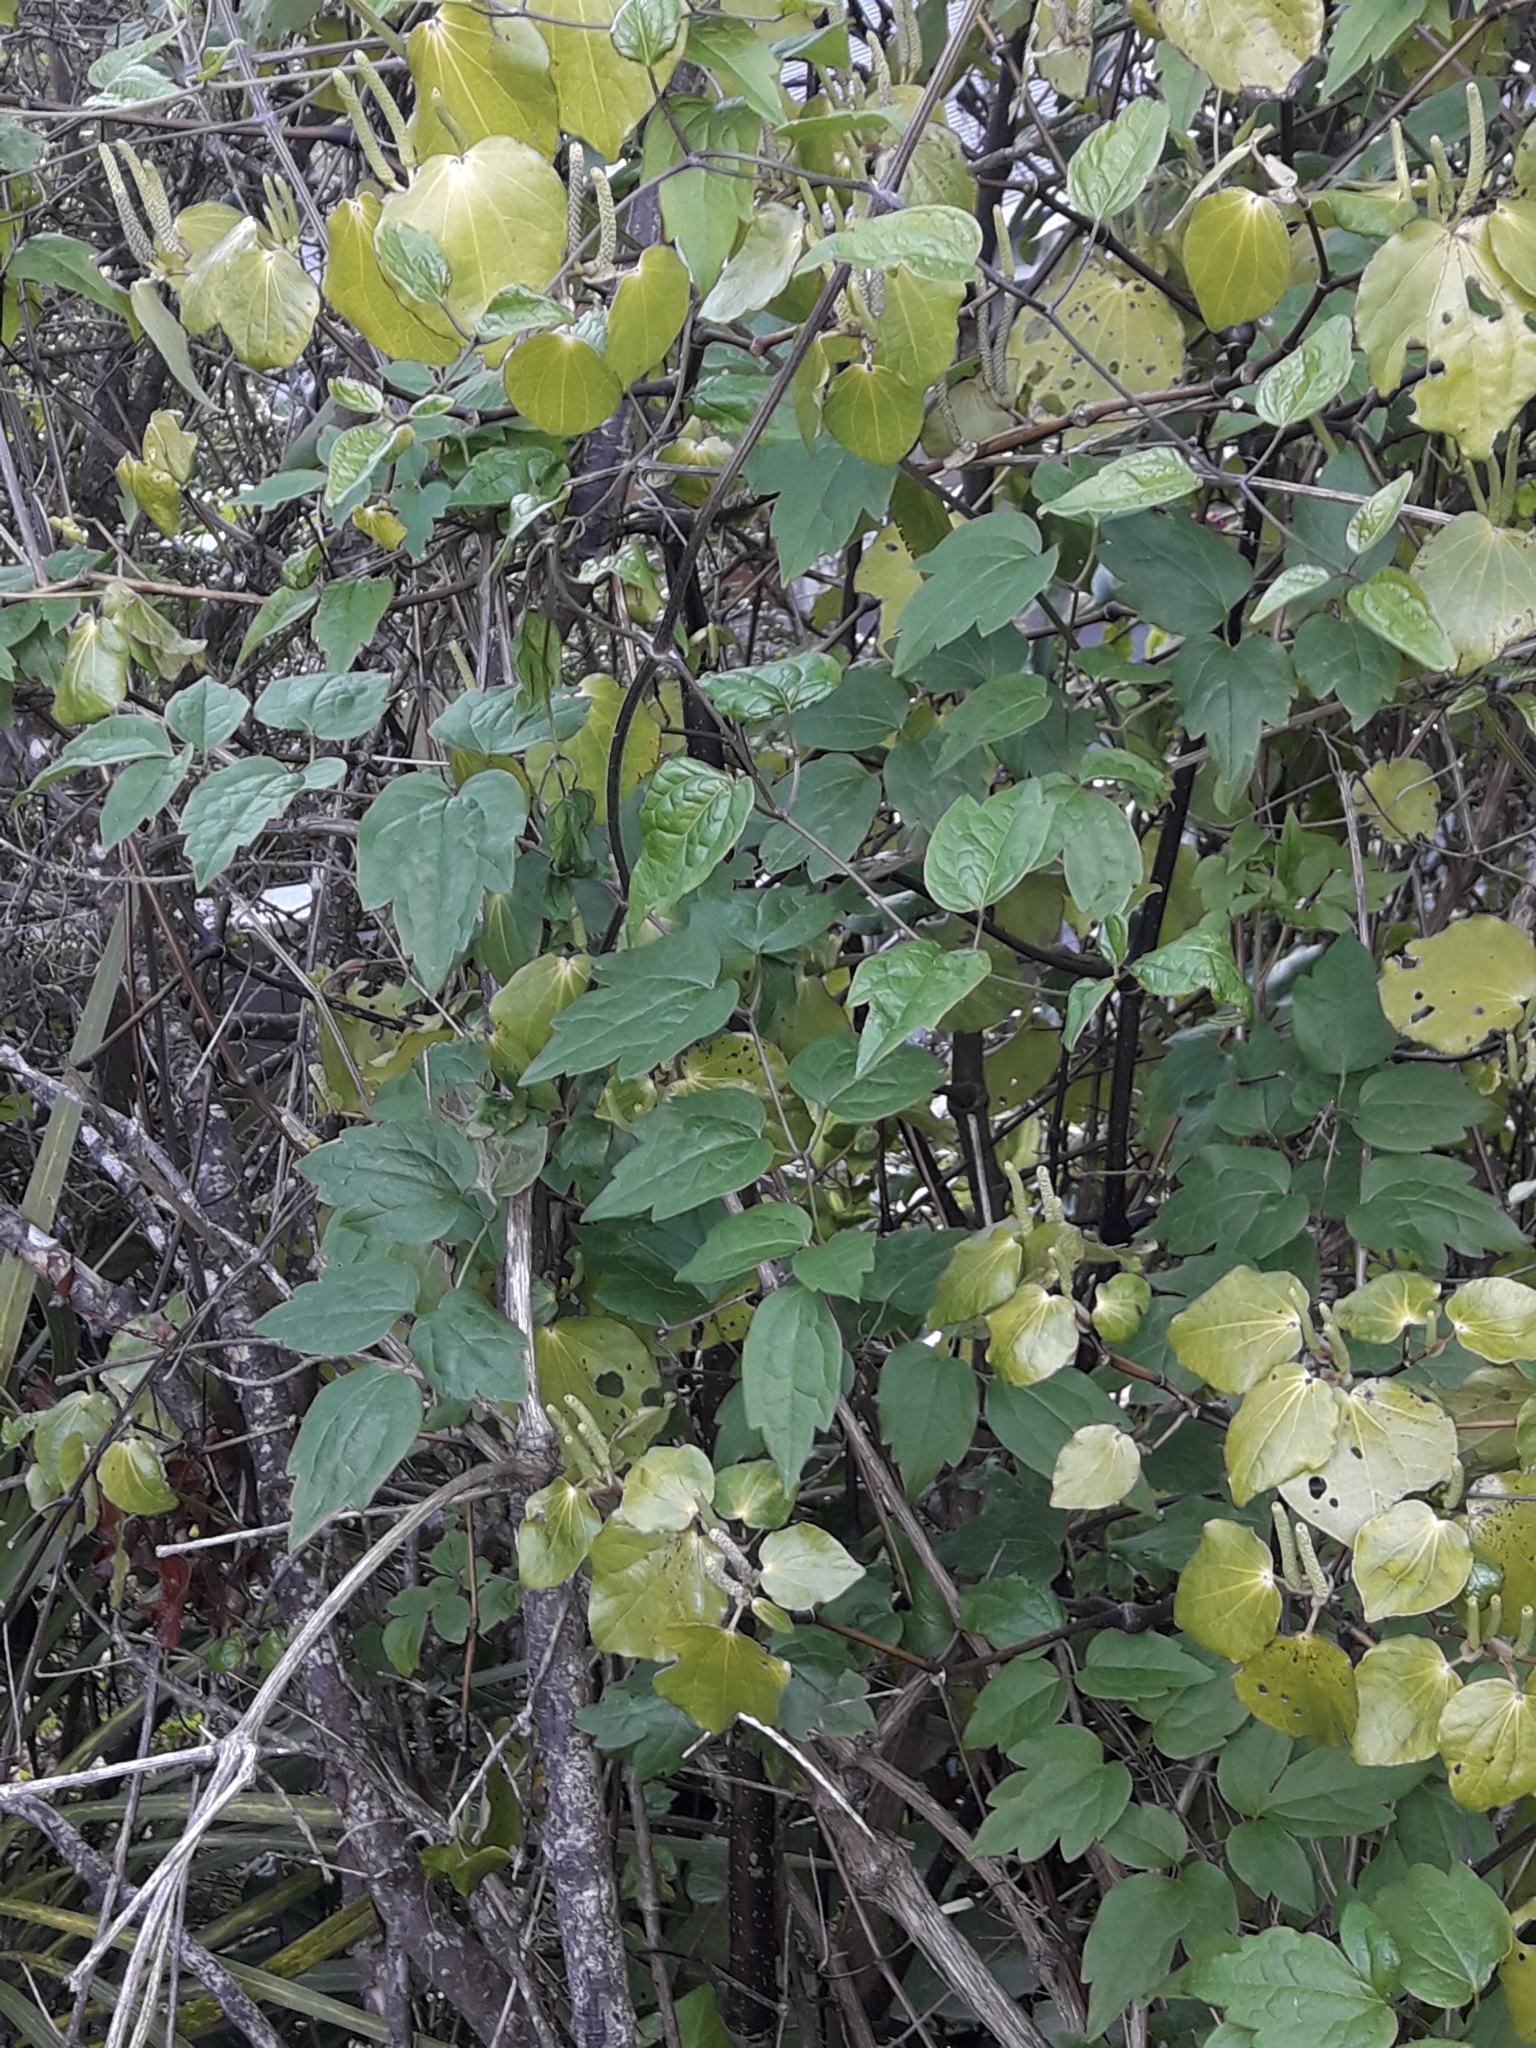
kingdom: Plantae
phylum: Tracheophyta
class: Magnoliopsida
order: Ranunculales
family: Ranunculaceae
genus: Clematis
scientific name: Clematis vitalba
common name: Evergreen clematis
